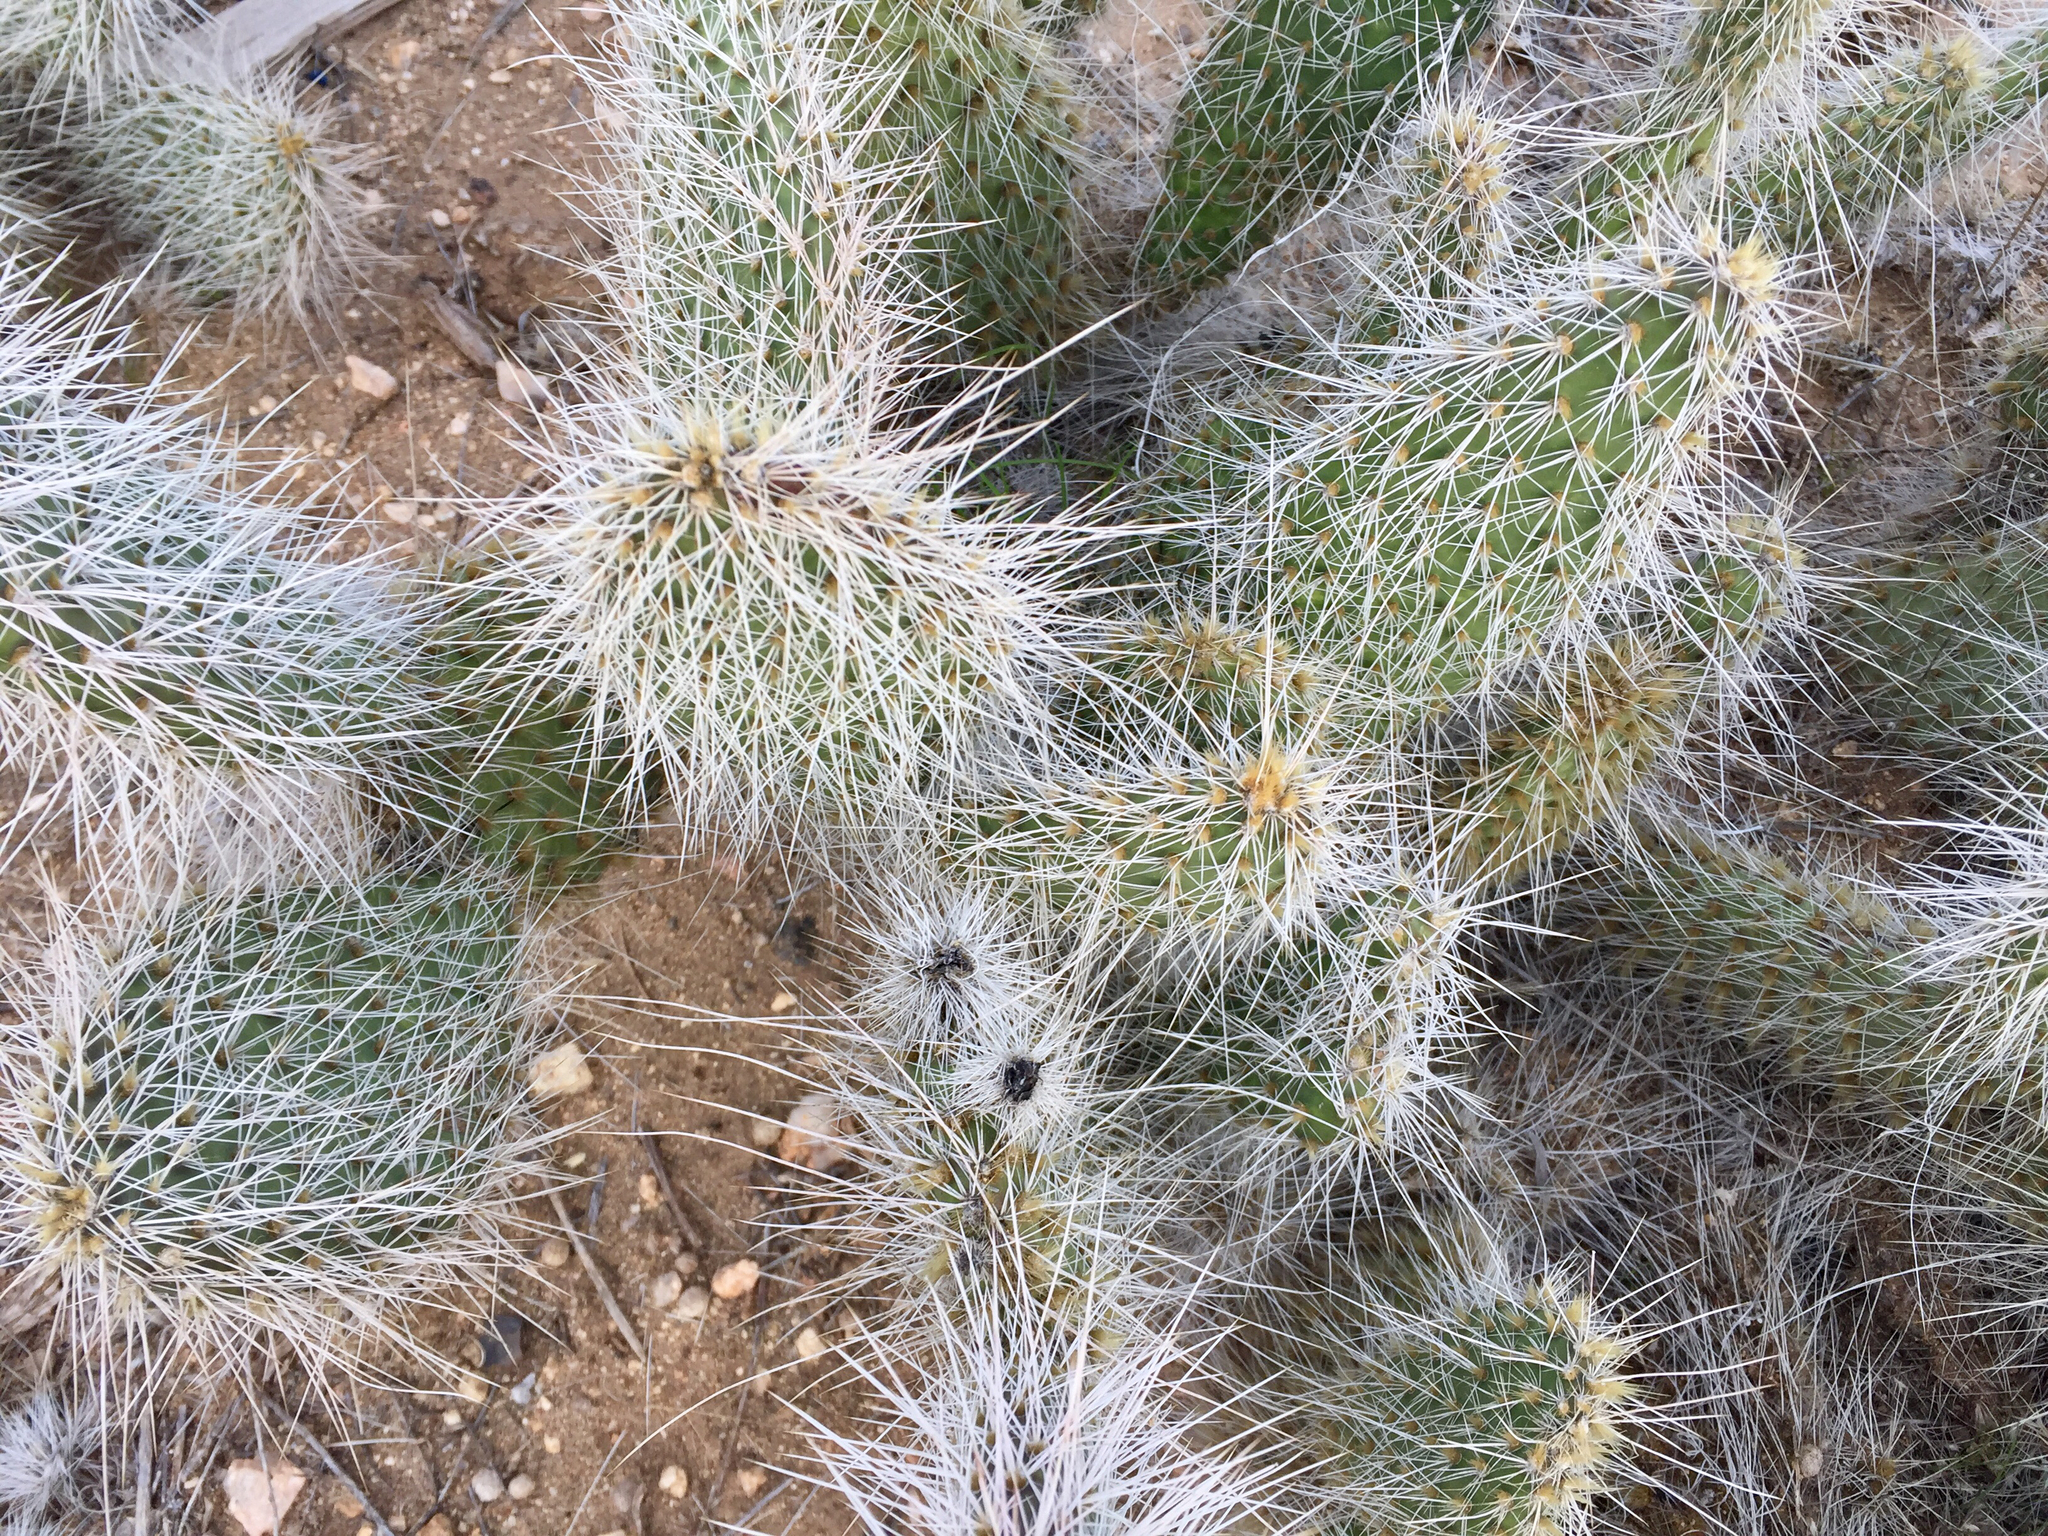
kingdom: Plantae
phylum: Tracheophyta
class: Magnoliopsida
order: Caryophyllales
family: Cactaceae
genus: Opuntia
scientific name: Opuntia polyacantha
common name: Plains prickly-pear
